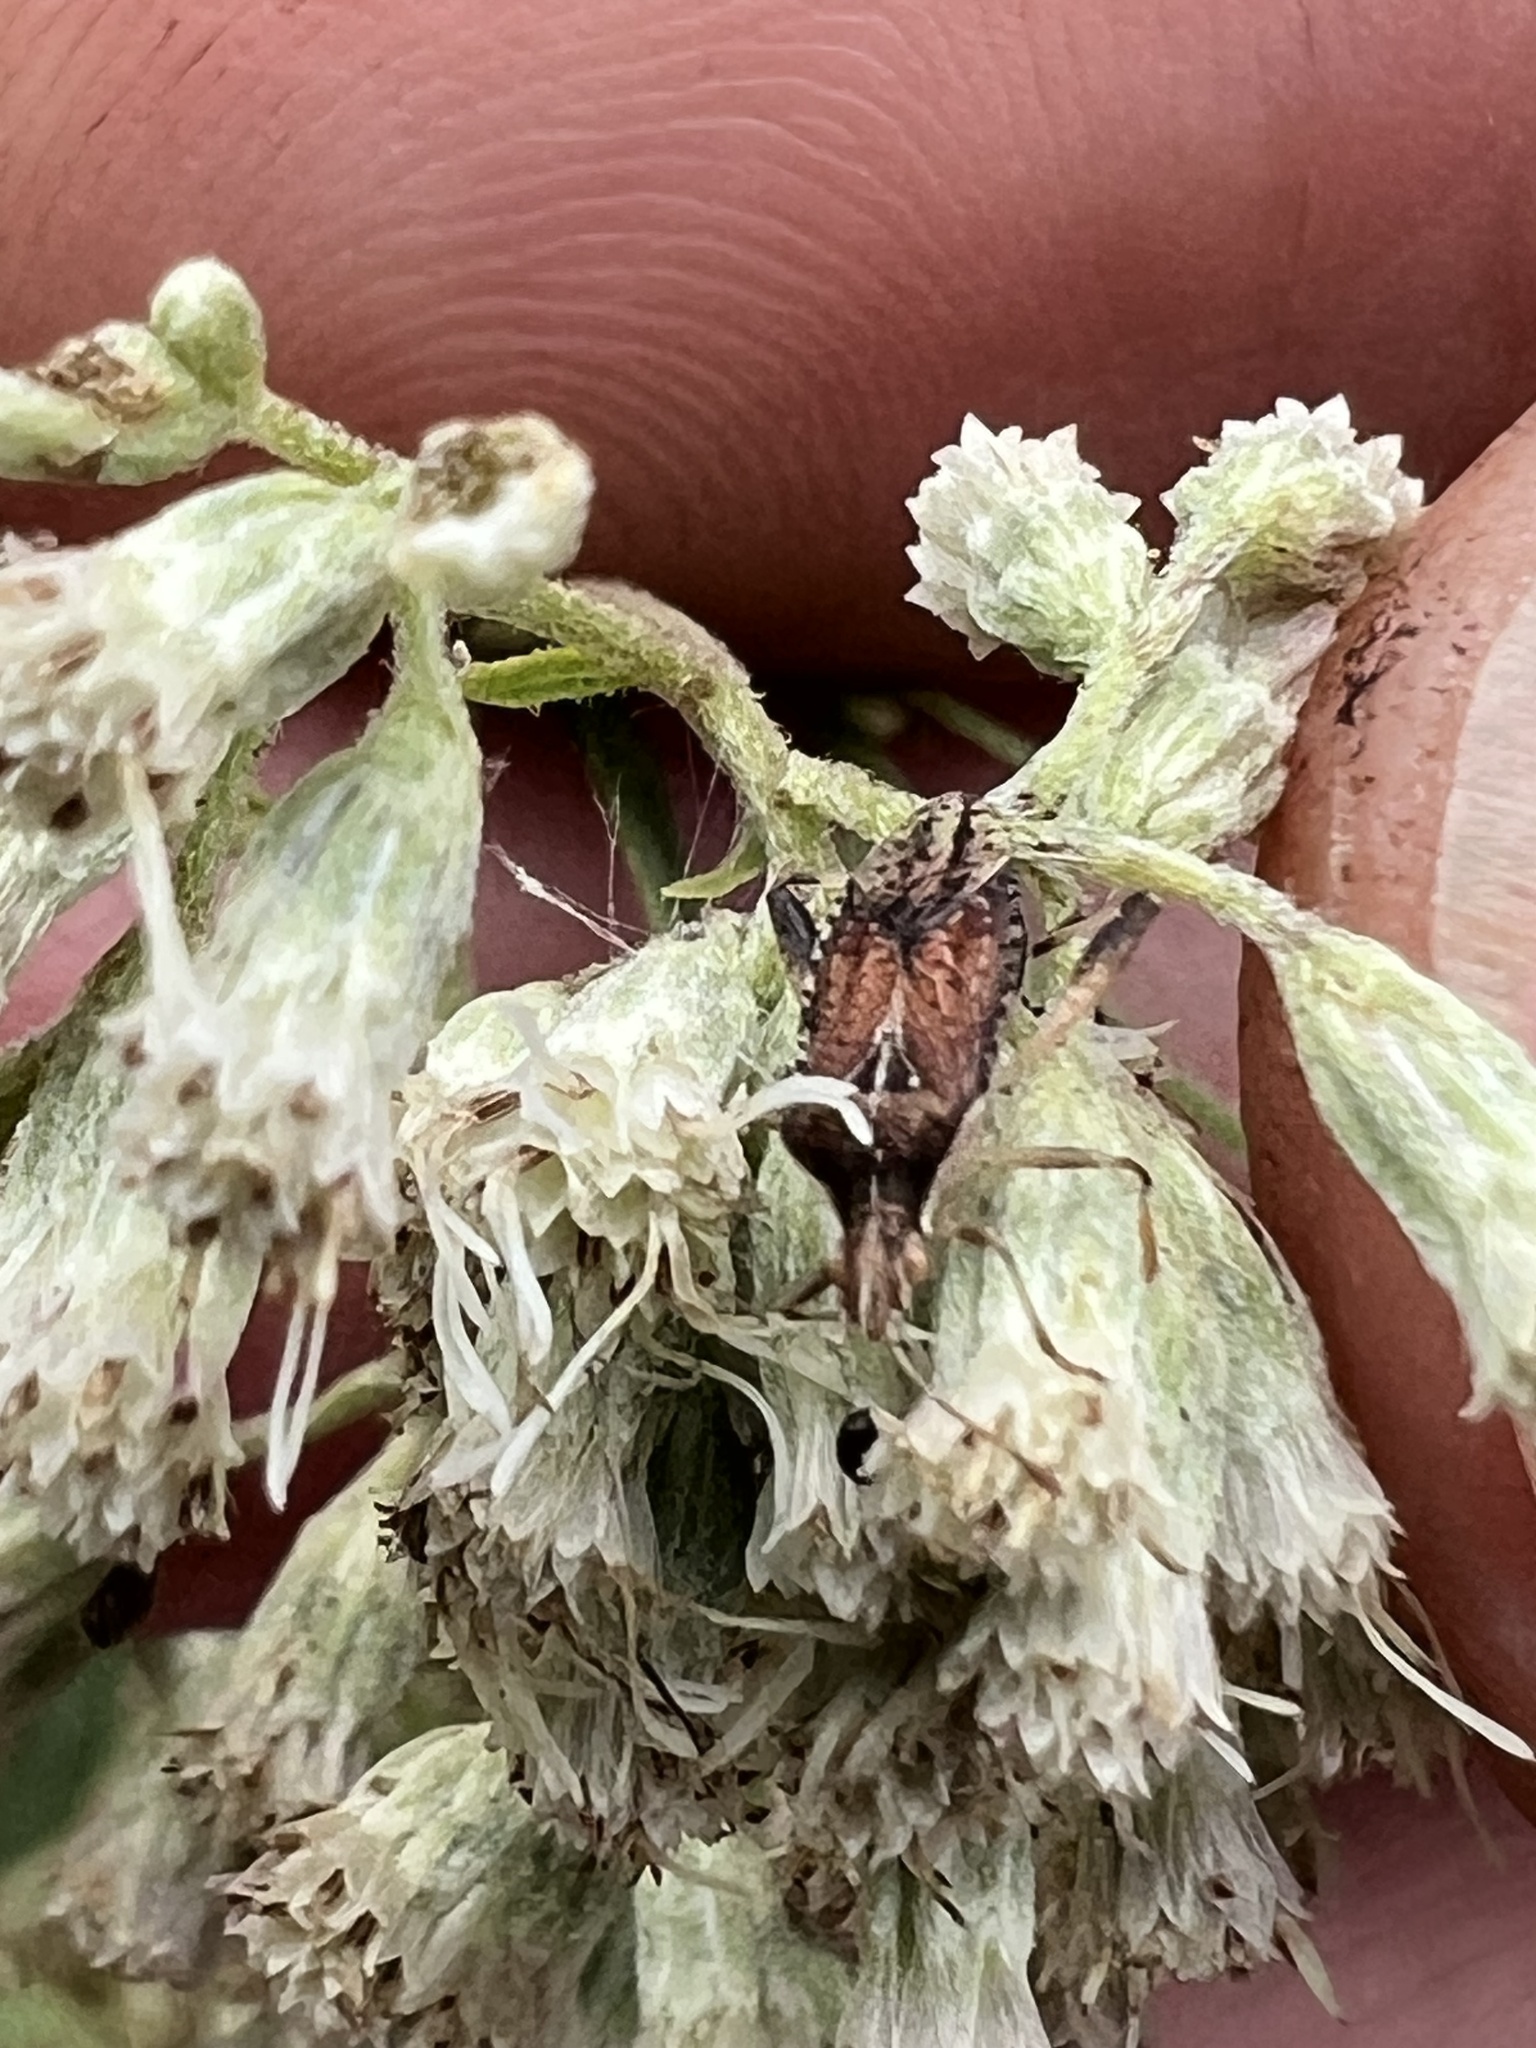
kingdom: Animalia
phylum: Arthropoda
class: Insecta
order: Hemiptera
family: Rhopalidae
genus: Harmostes
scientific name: Harmostes fraterculus
